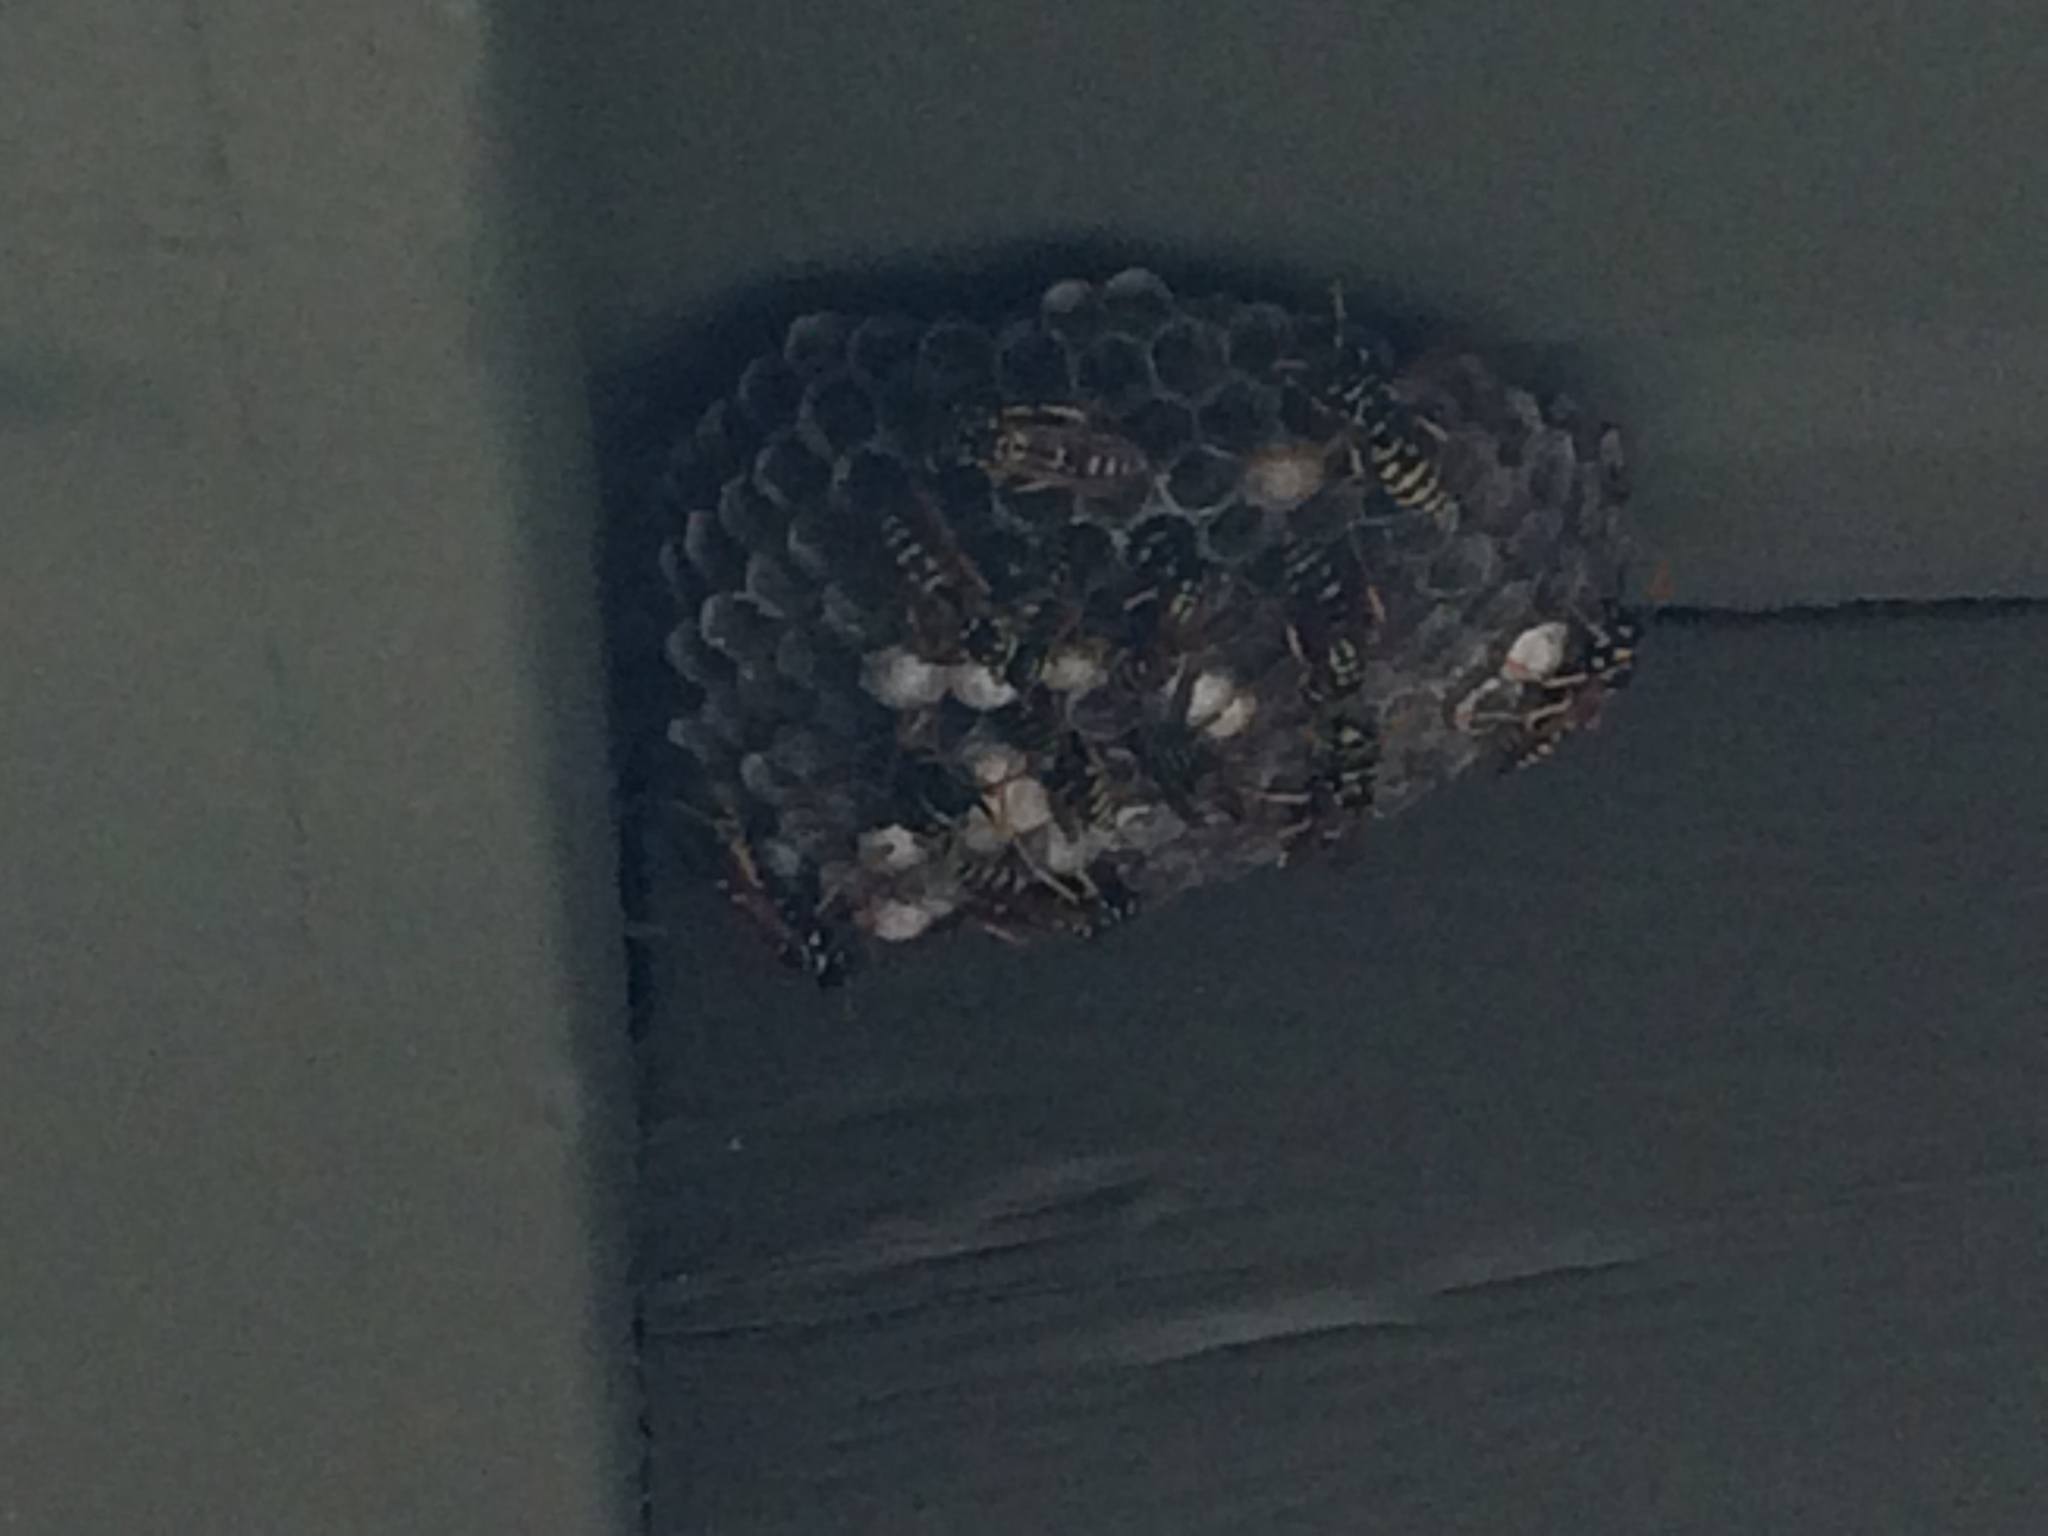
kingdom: Animalia
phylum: Arthropoda
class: Insecta
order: Hymenoptera
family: Eumenidae
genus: Polistes
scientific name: Polistes dominula
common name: Paper wasp
